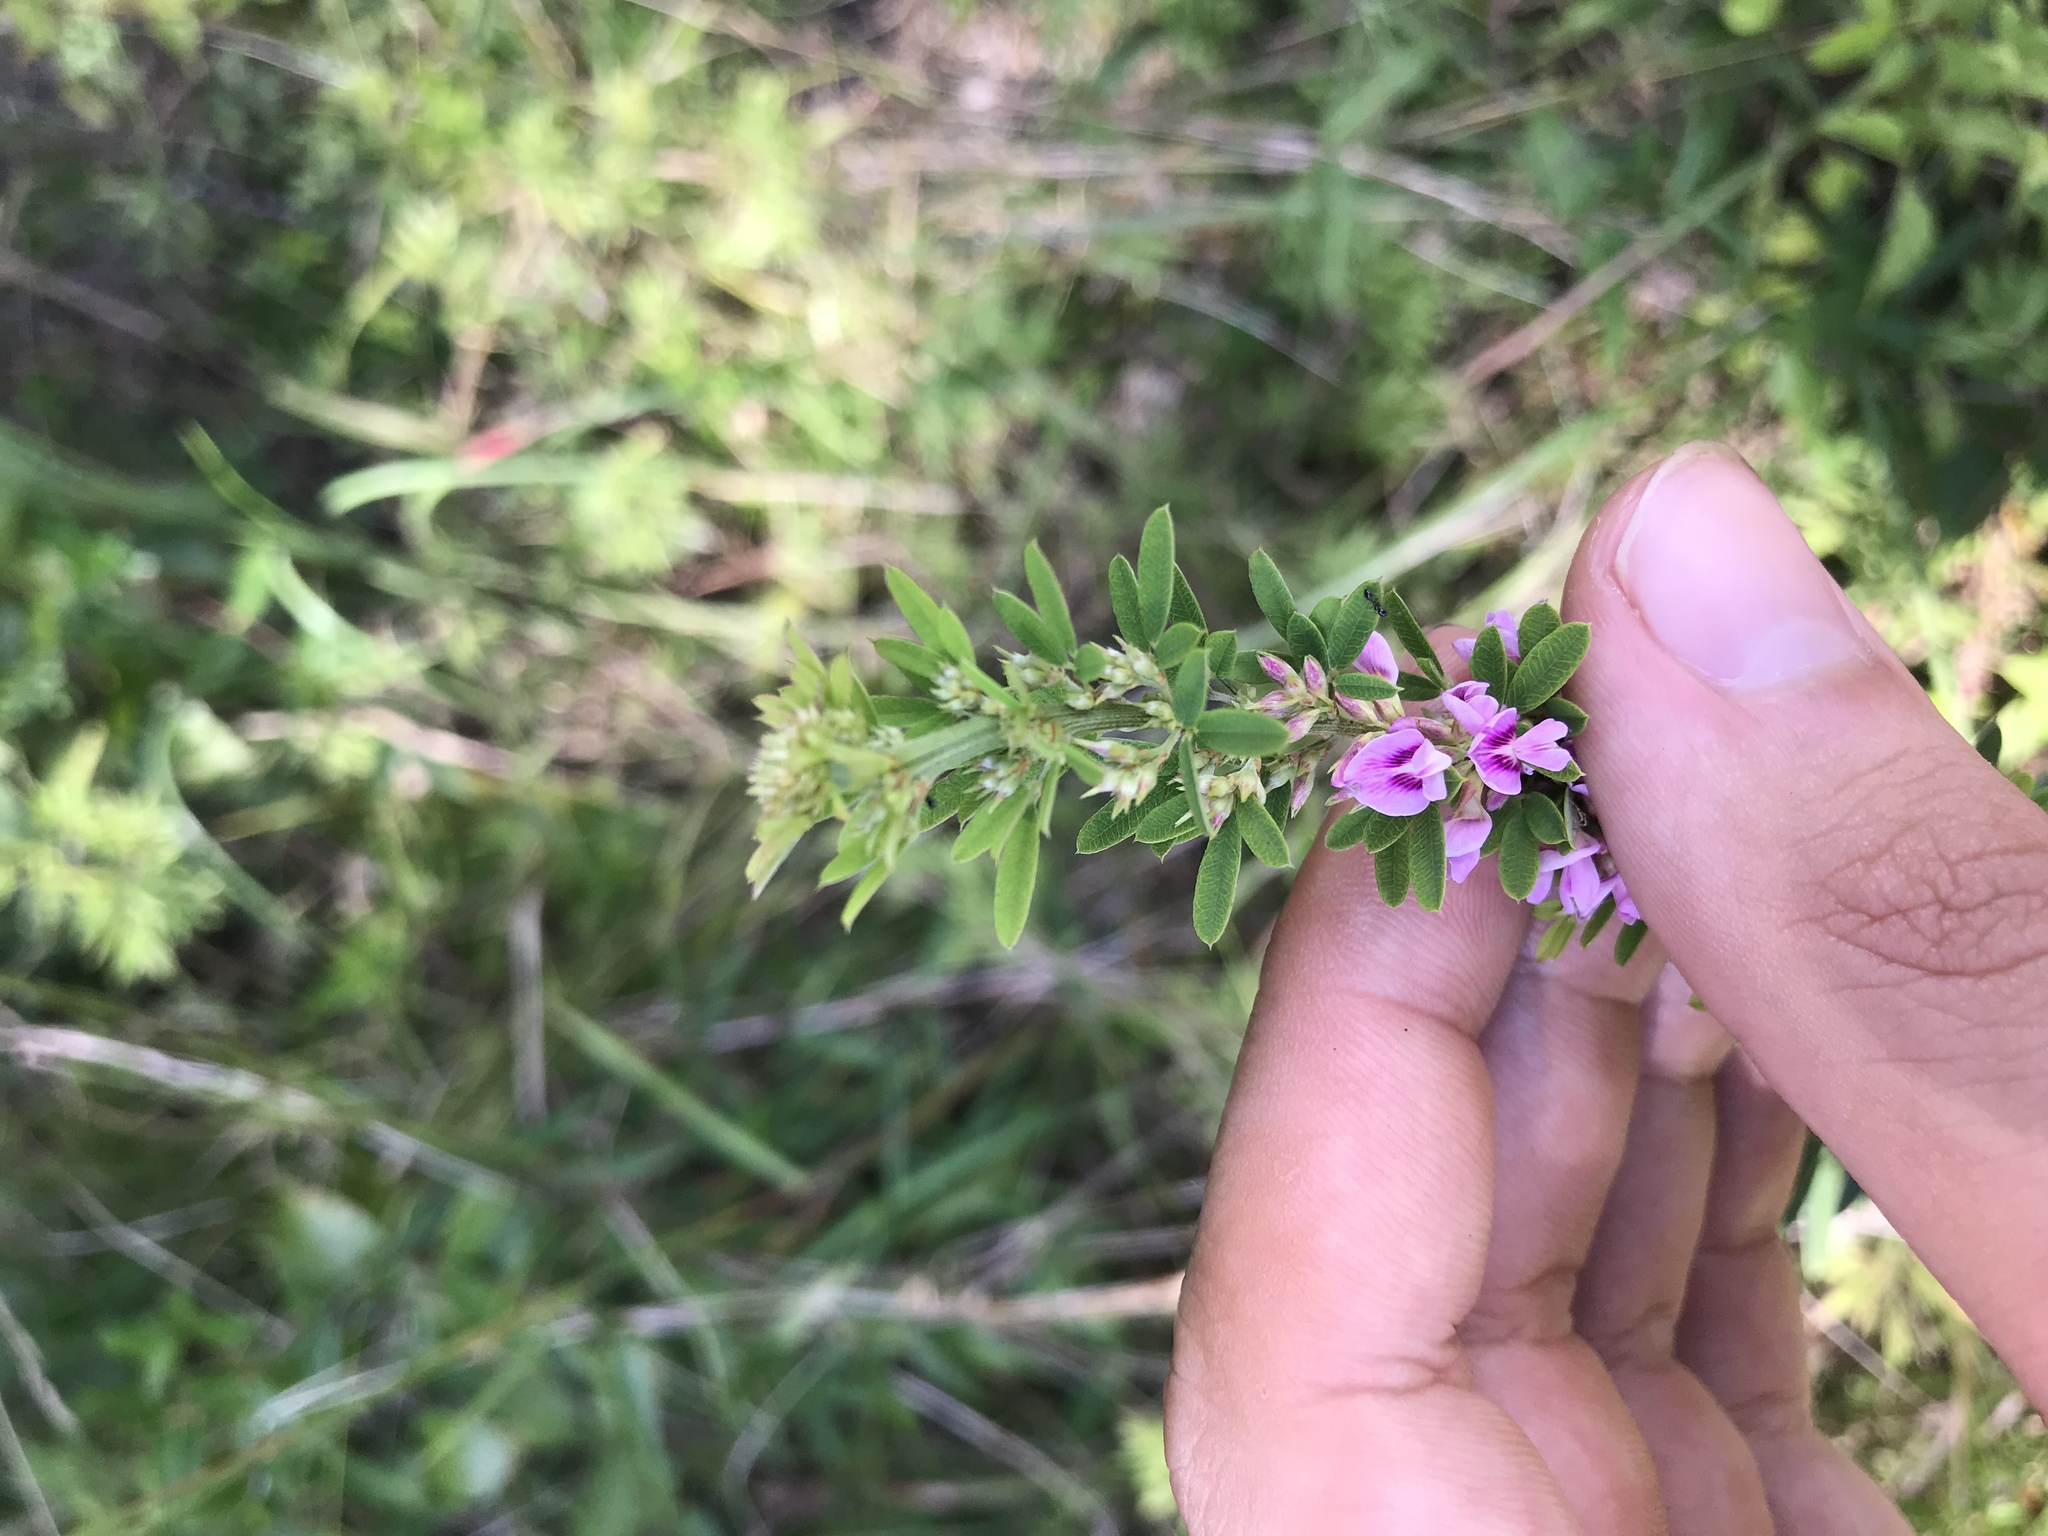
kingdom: Plantae
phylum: Tracheophyta
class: Magnoliopsida
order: Fabales
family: Fabaceae
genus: Lespedeza
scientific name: Lespedeza virginica
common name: Slender bush-clover
